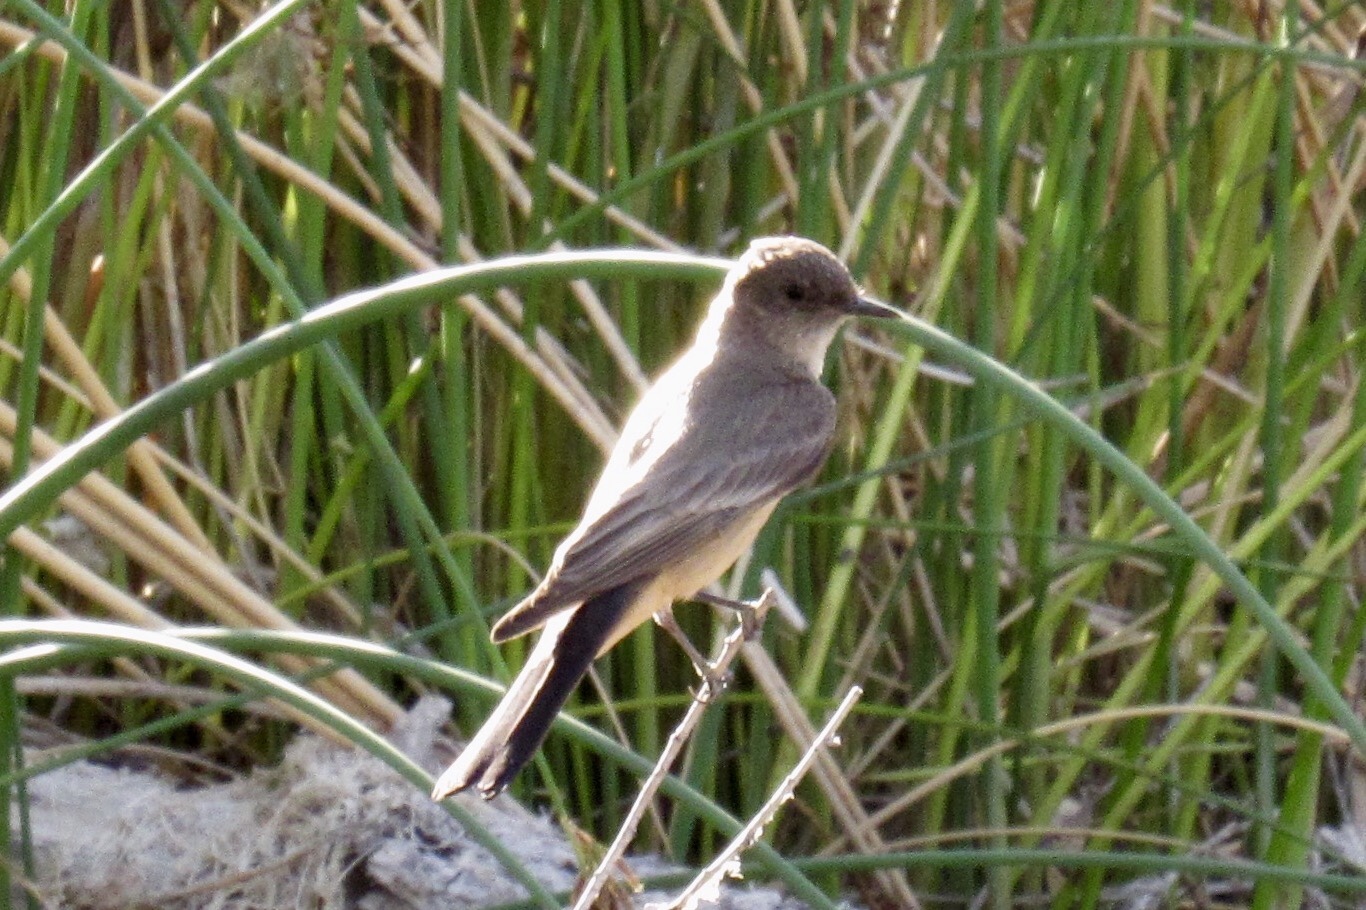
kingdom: Animalia
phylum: Chordata
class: Aves
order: Passeriformes
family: Tyrannidae
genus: Sayornis
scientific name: Sayornis saya
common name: Say's phoebe
